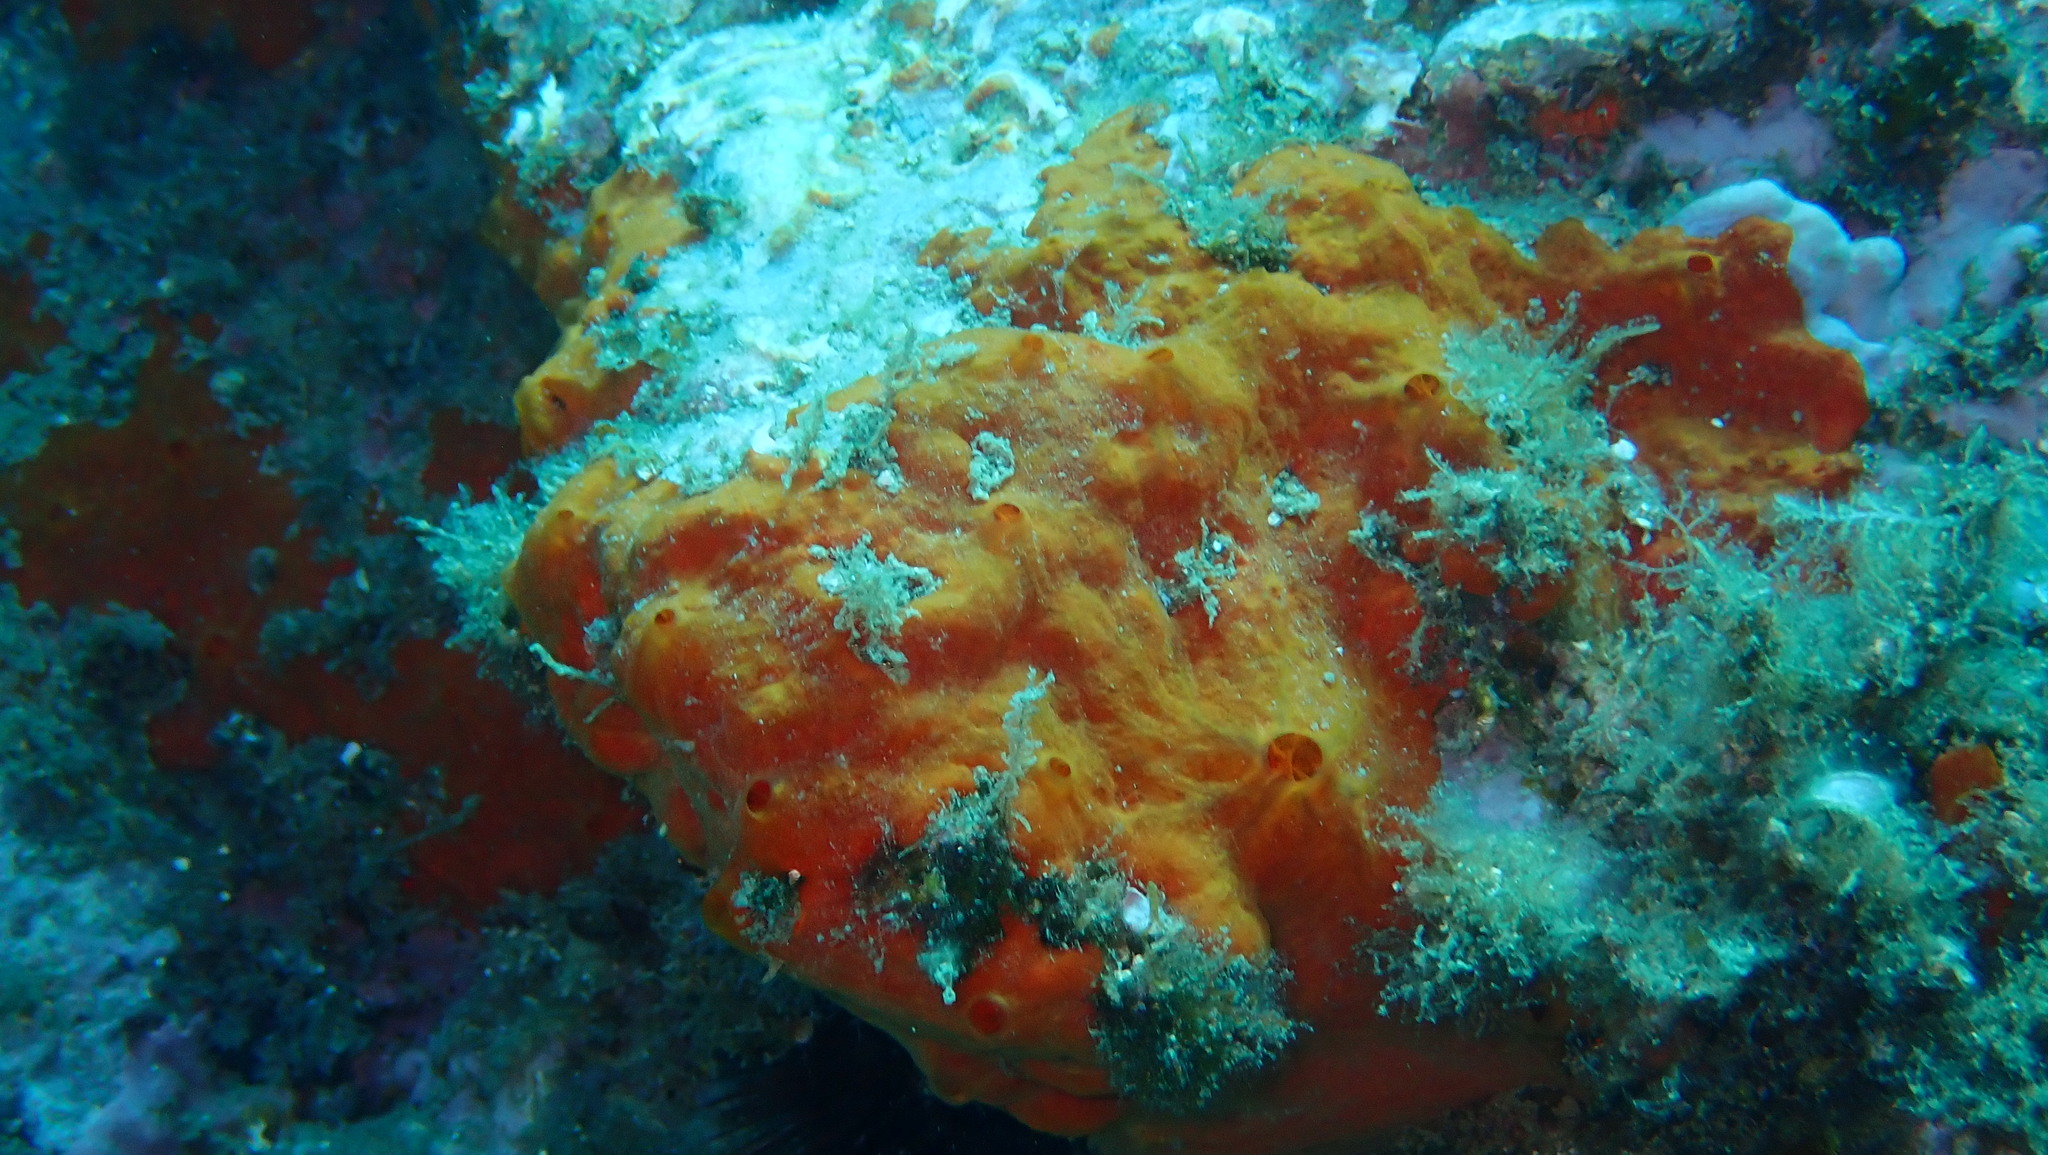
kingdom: Animalia
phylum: Porifera
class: Demospongiae
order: Poecilosclerida
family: Crambeidae
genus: Crambe
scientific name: Crambe crambe
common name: Orange-red encrusting sponge
